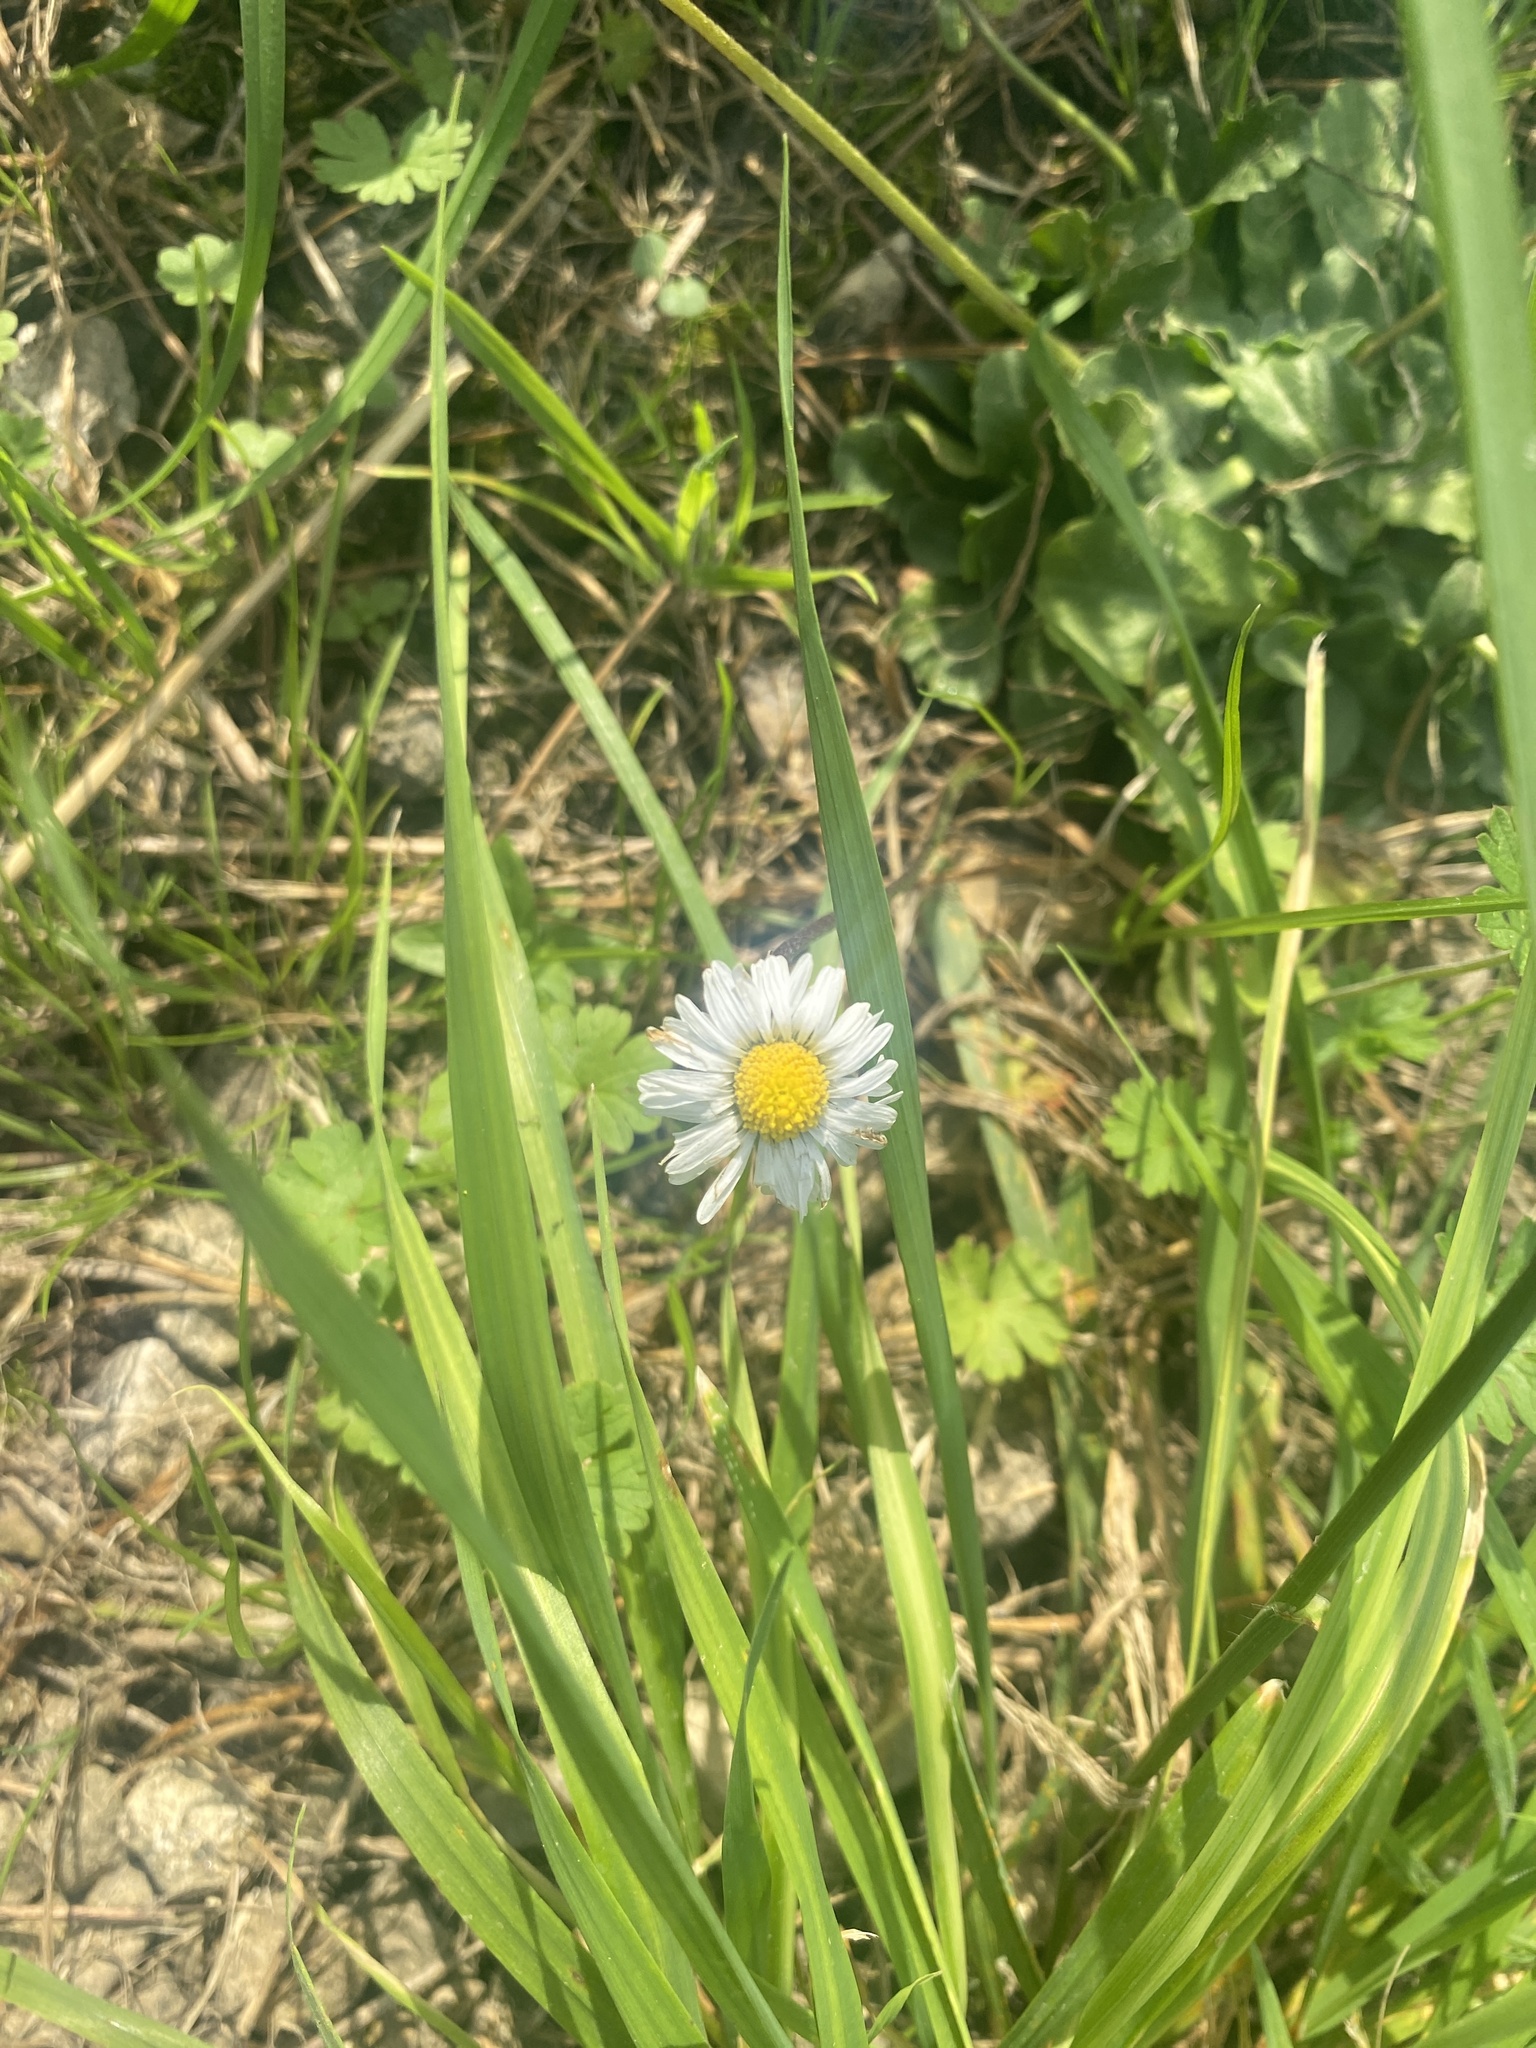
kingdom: Plantae
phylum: Tracheophyta
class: Magnoliopsida
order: Asterales
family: Asteraceae
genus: Bellis
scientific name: Bellis perennis
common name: Lawndaisy
